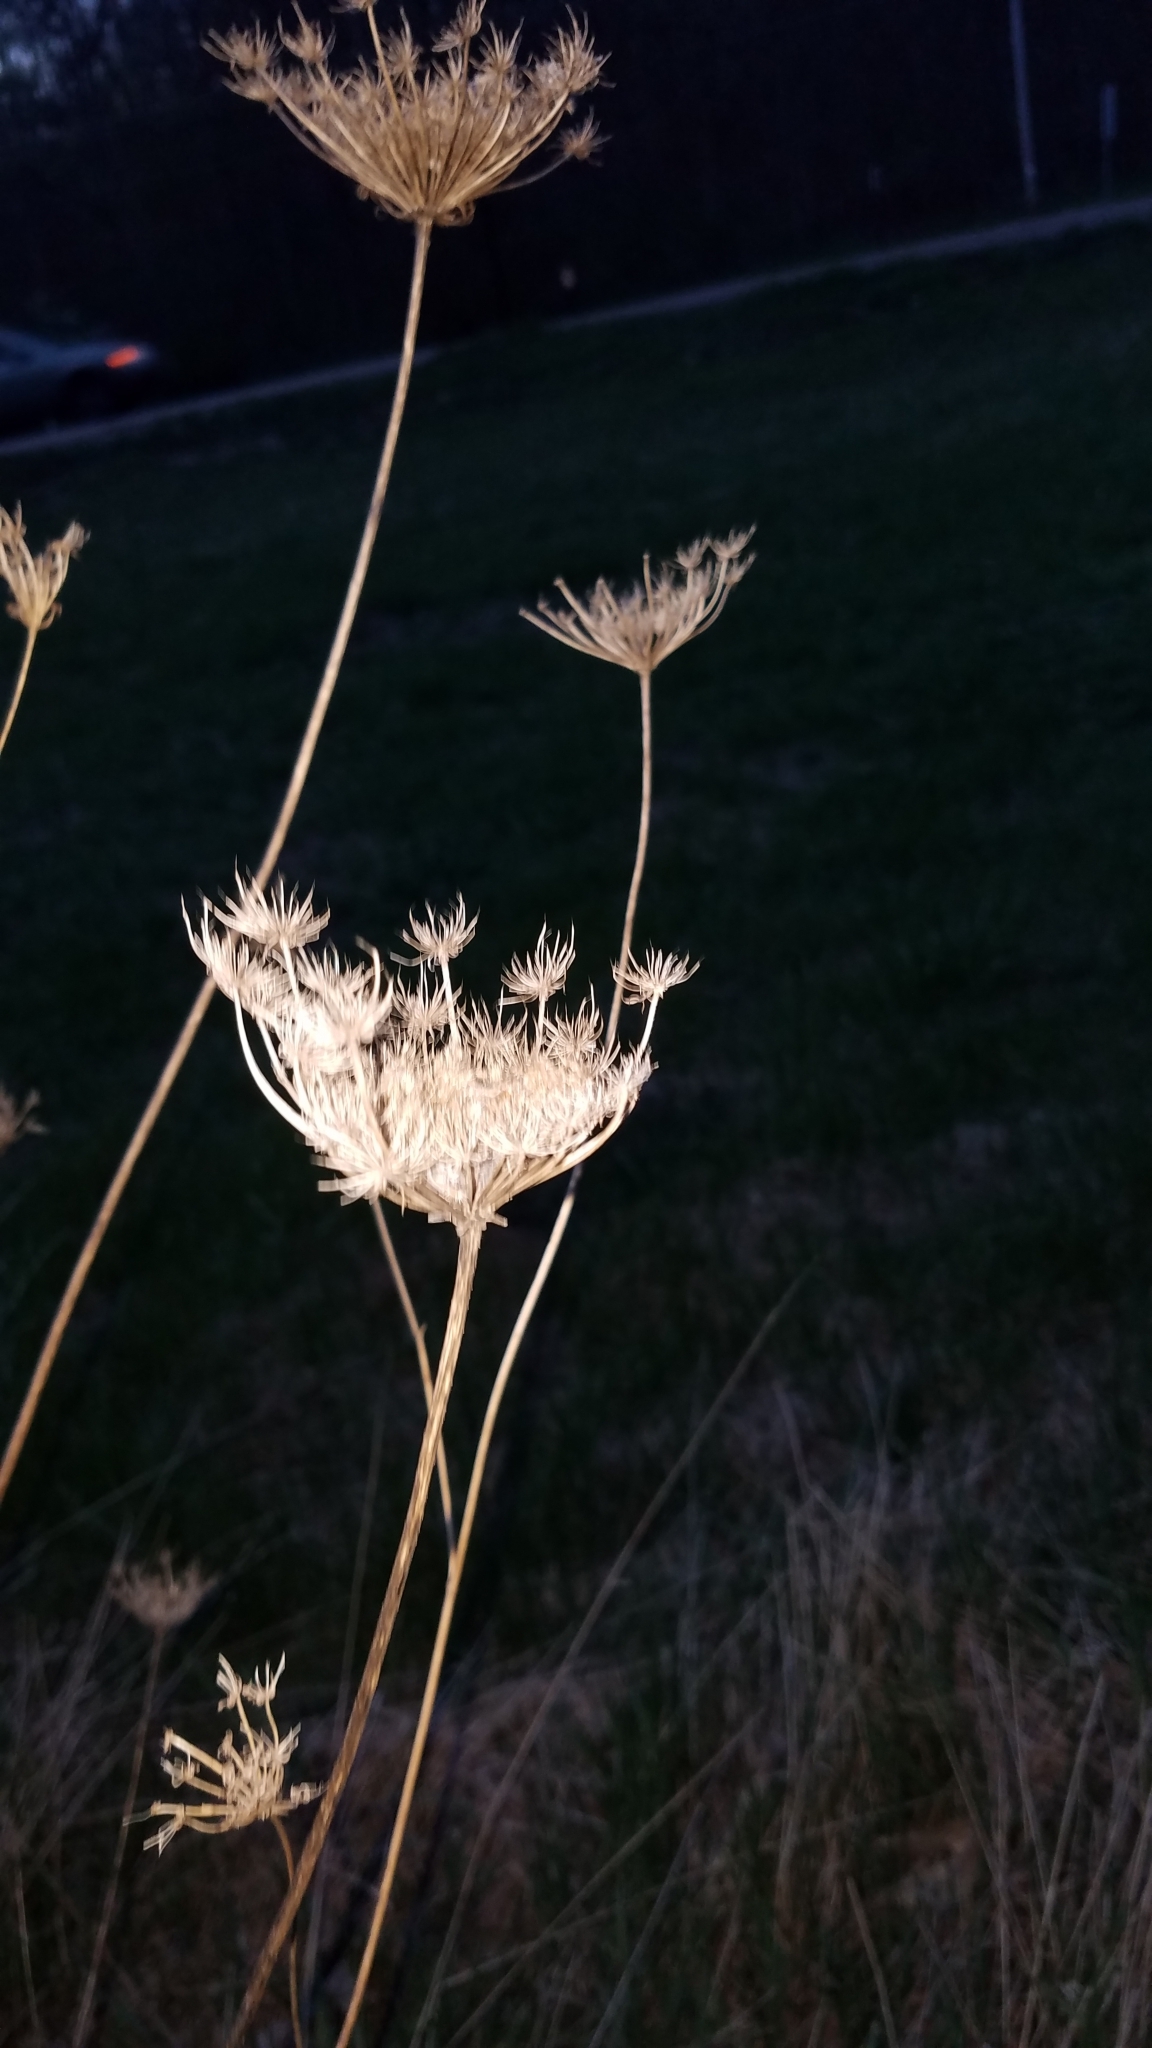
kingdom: Plantae
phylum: Tracheophyta
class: Magnoliopsida
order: Apiales
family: Apiaceae
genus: Daucus
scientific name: Daucus carota
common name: Wild carrot
